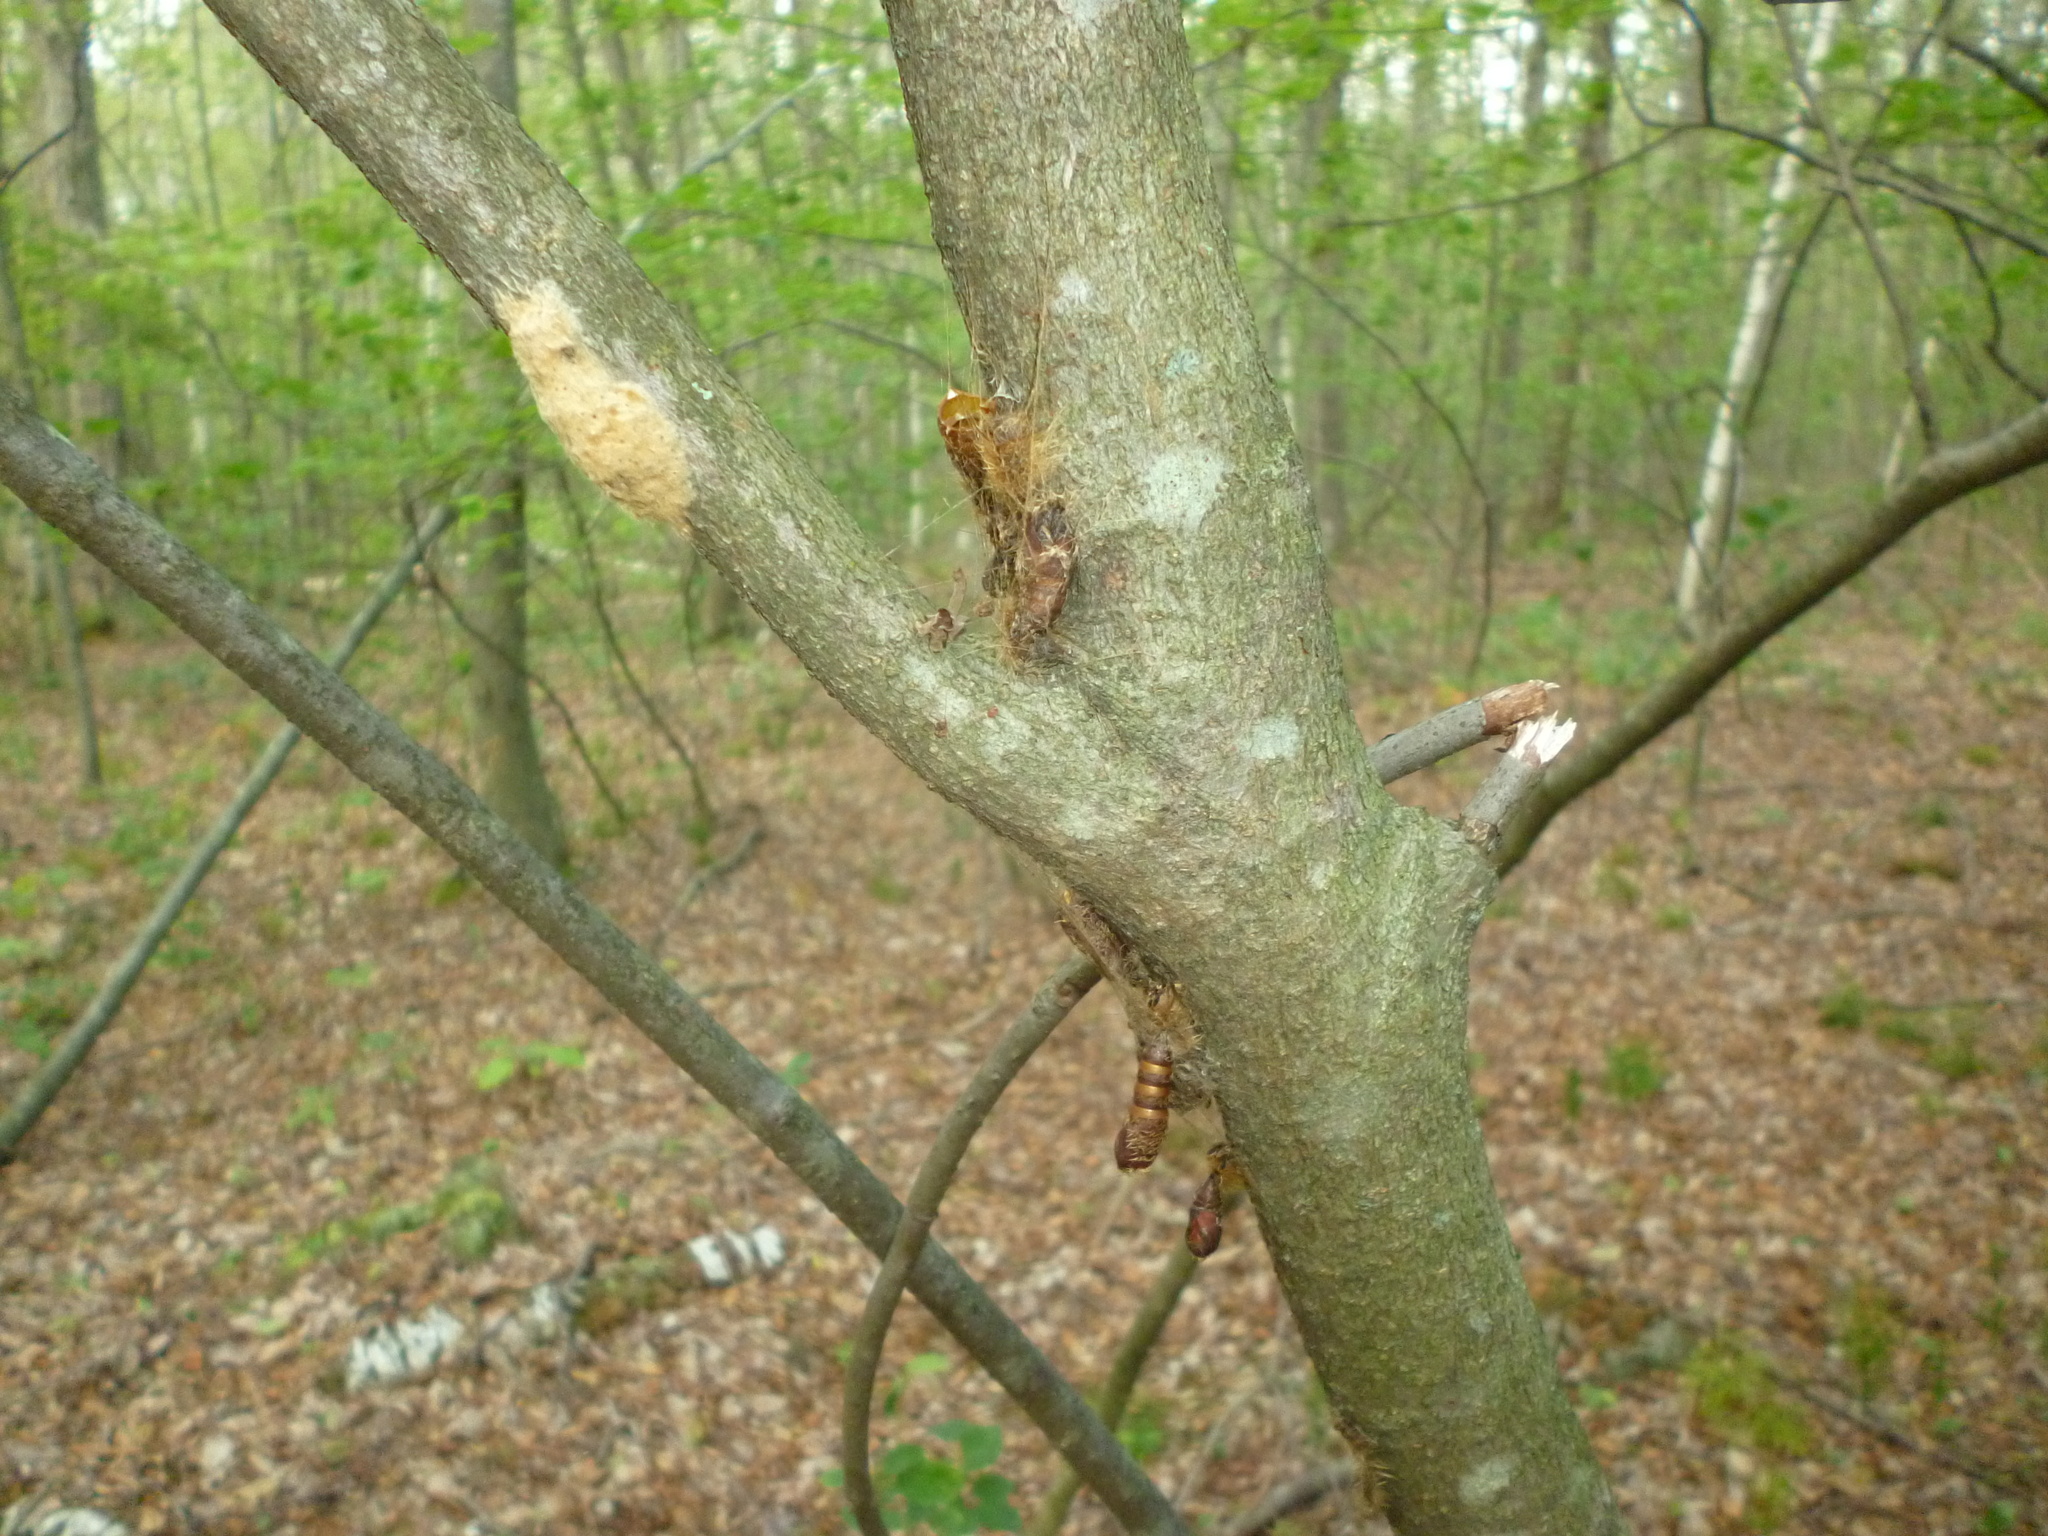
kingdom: Animalia
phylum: Arthropoda
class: Insecta
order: Lepidoptera
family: Erebidae
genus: Lymantria
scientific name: Lymantria dispar
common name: Gypsy moth
